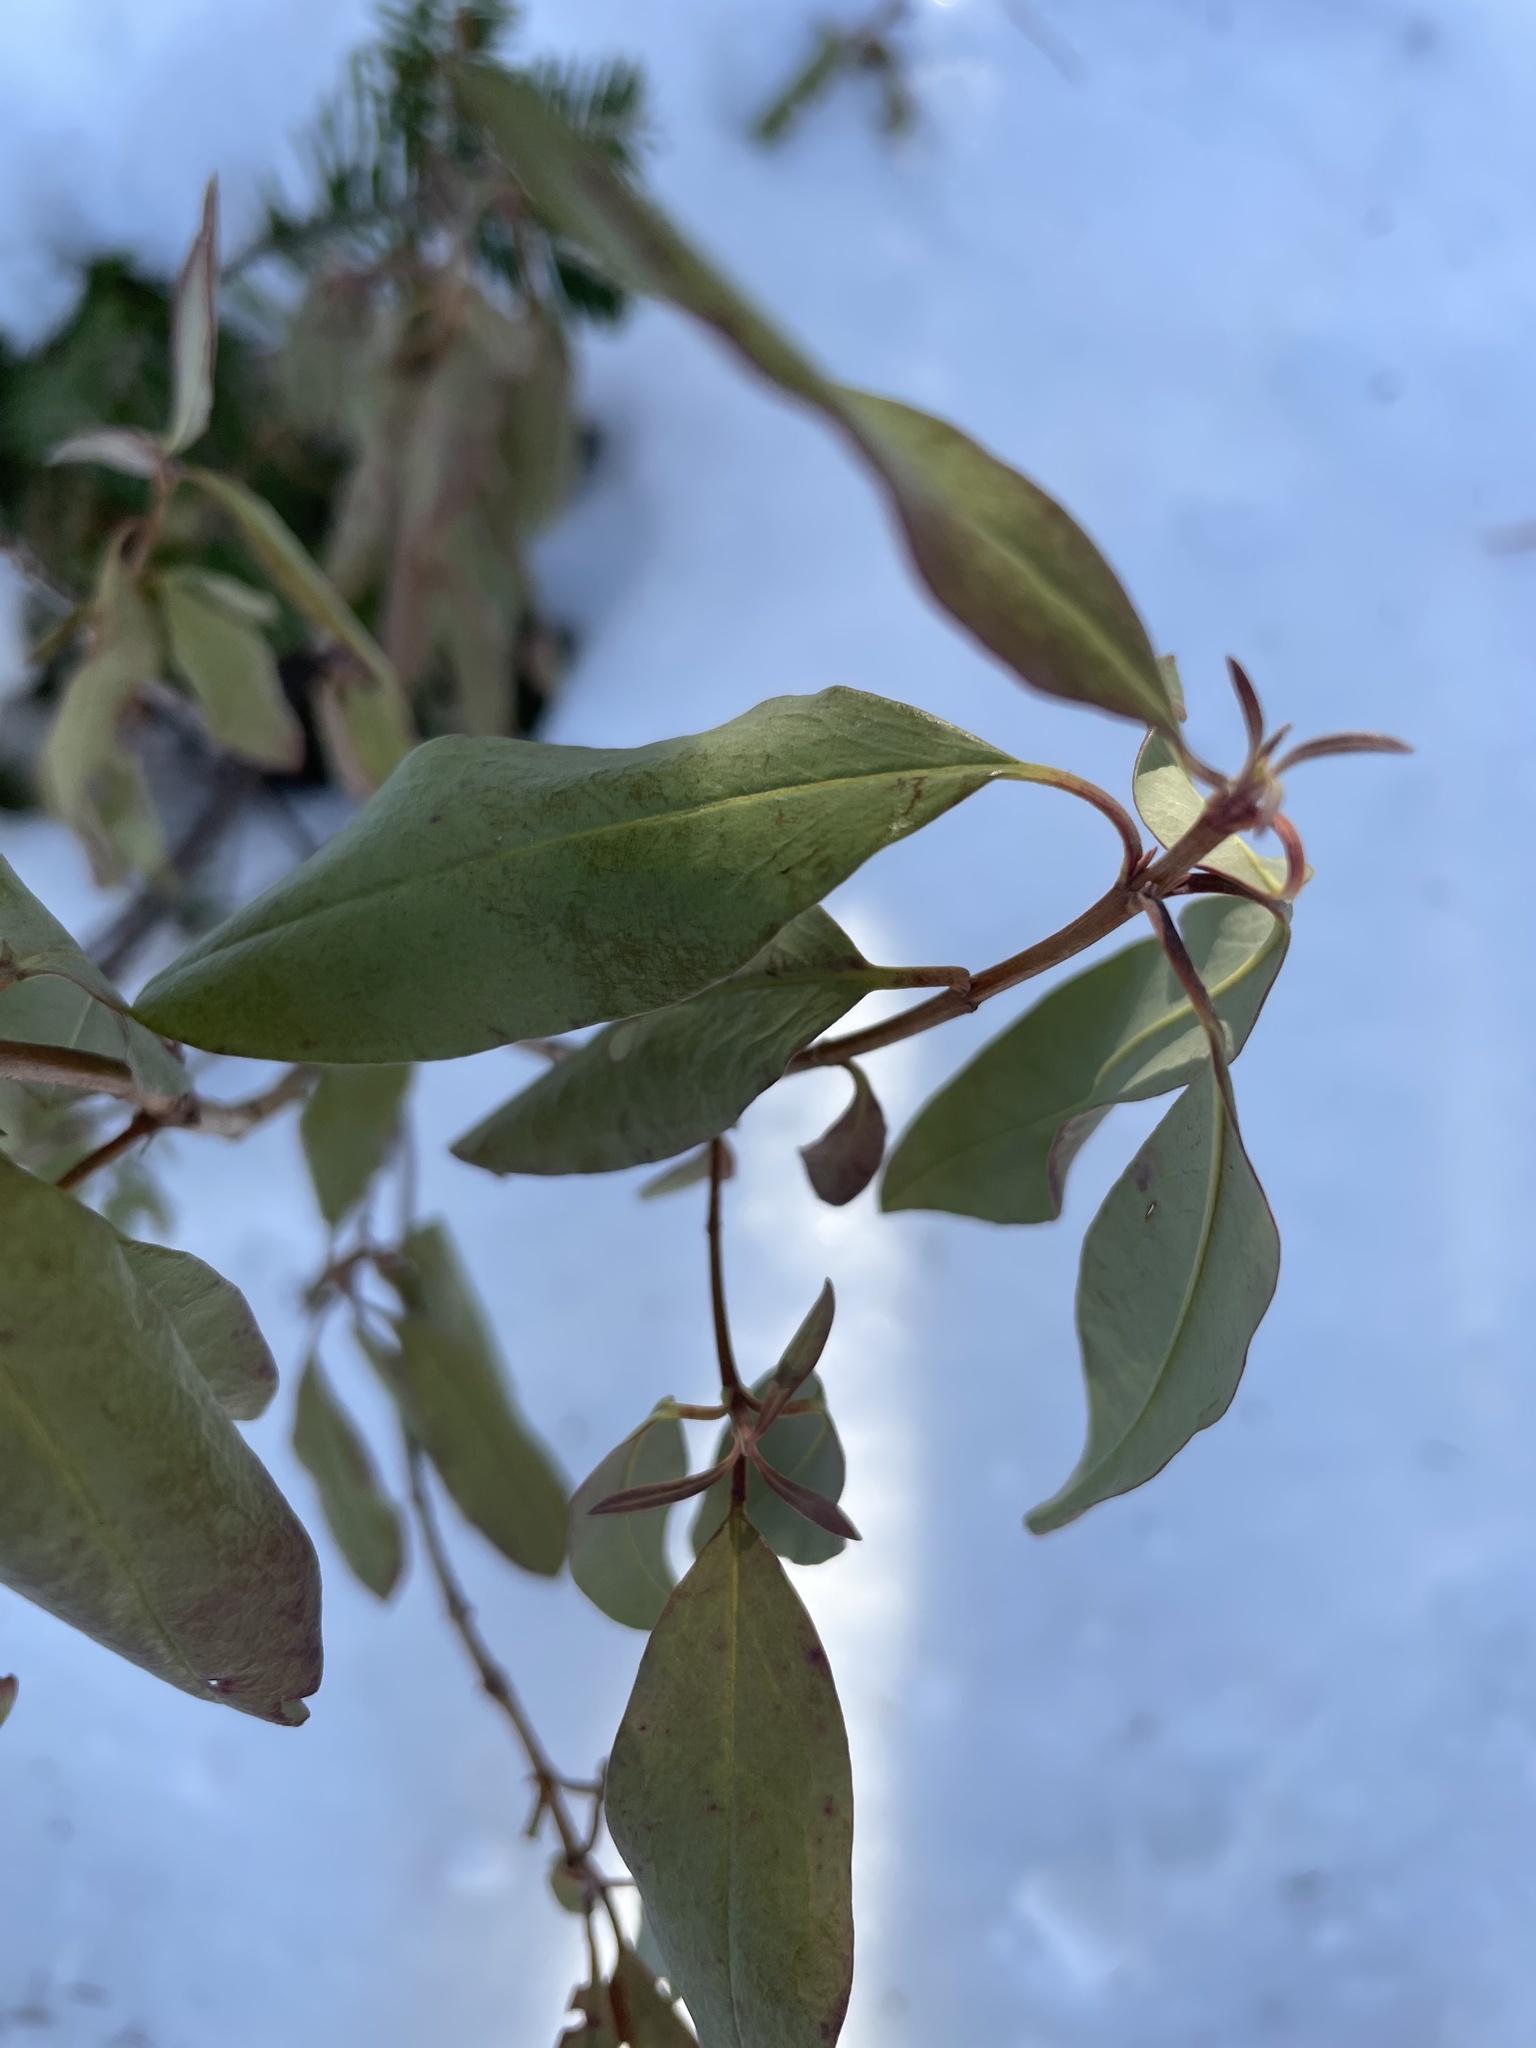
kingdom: Plantae
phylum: Tracheophyta
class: Magnoliopsida
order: Ericales
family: Ericaceae
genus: Kalmia
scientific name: Kalmia angustifolia
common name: Sheep-laurel
